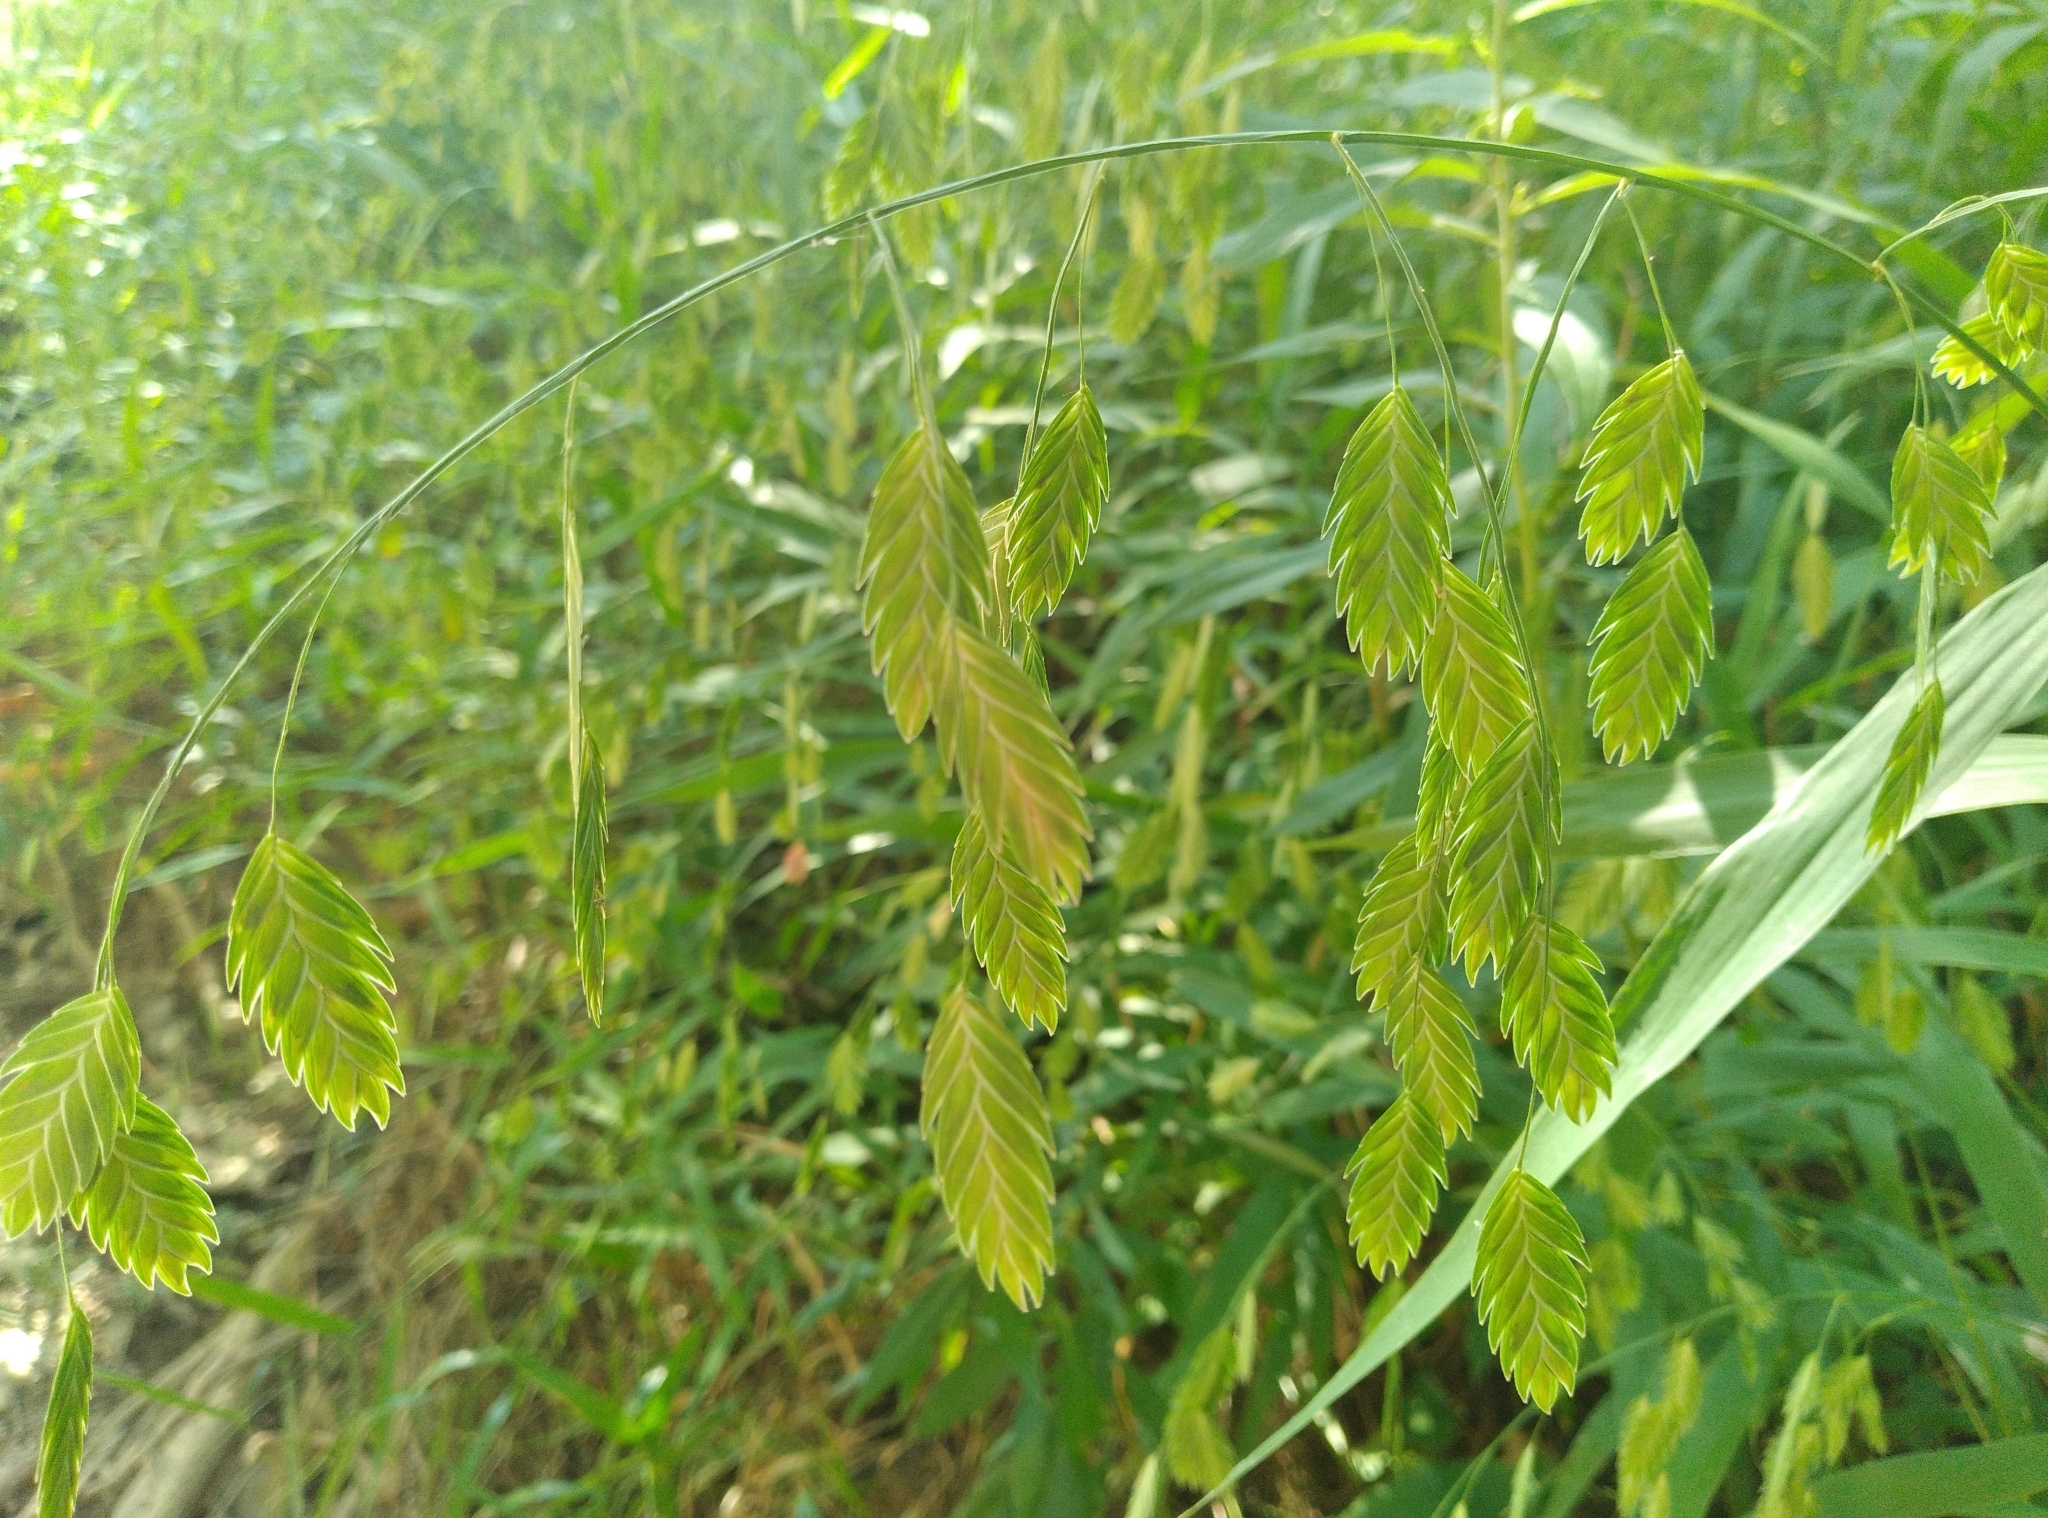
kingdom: Plantae
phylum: Tracheophyta
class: Liliopsida
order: Poales
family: Poaceae
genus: Chasmanthium
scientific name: Chasmanthium latifolium
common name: Broad-leaved chasmanthium
